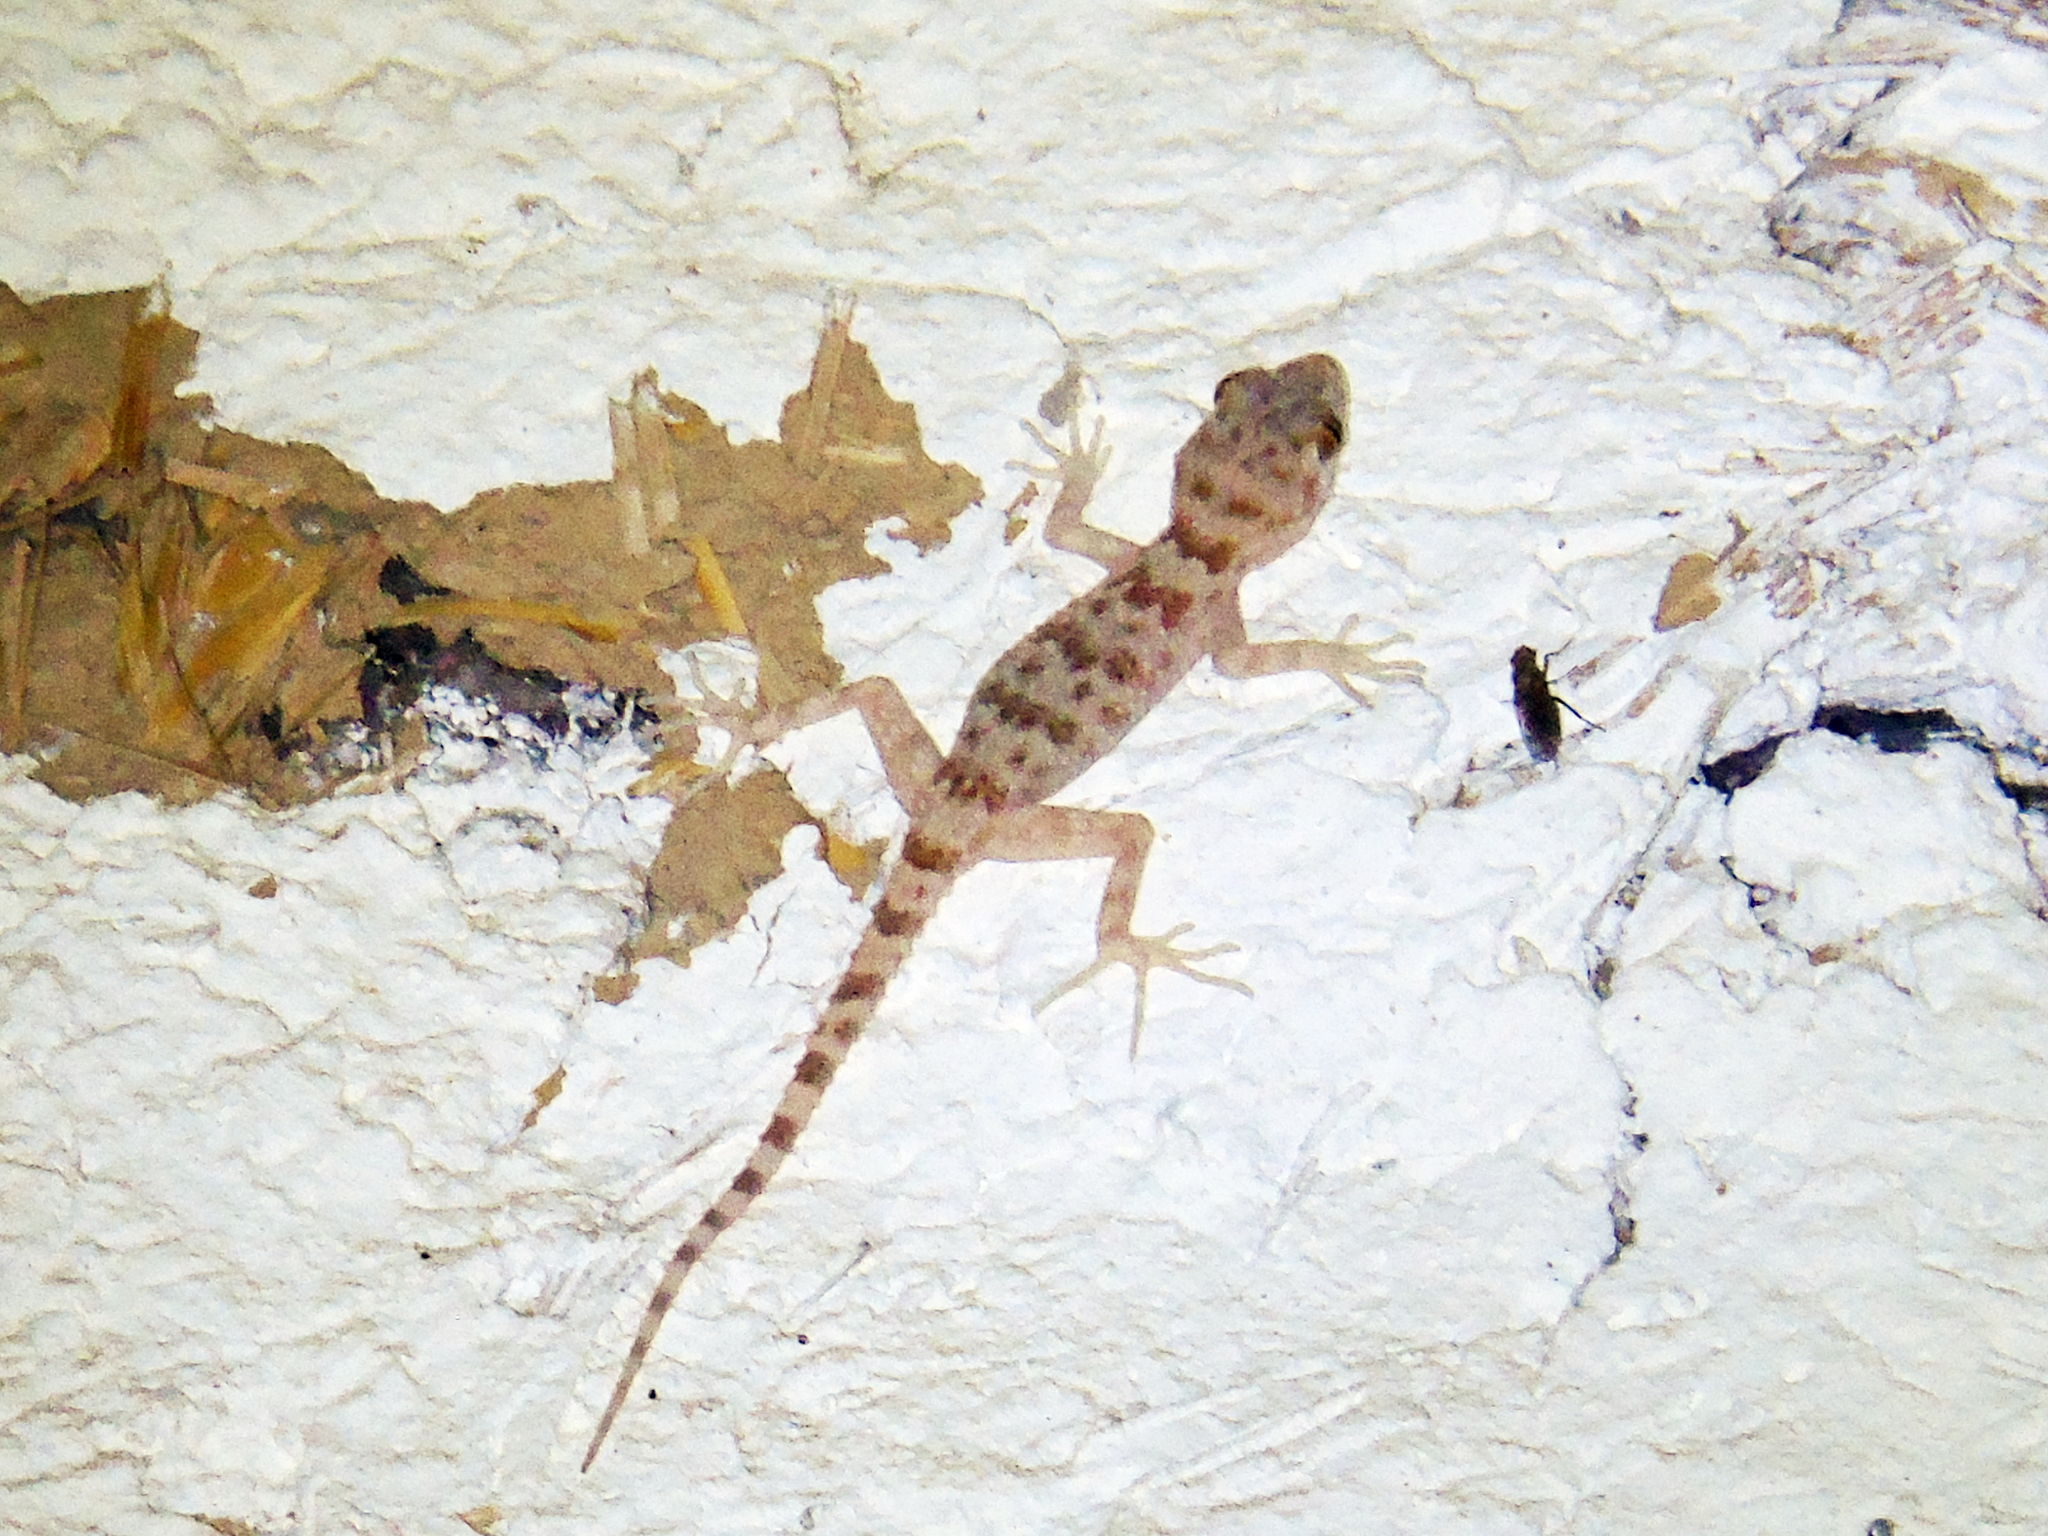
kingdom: Animalia
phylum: Chordata
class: Squamata
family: Gekkonidae
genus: Tenuidactylus
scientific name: Tenuidactylus fedtschenkoi
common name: Turkestan thin-toed gecko
